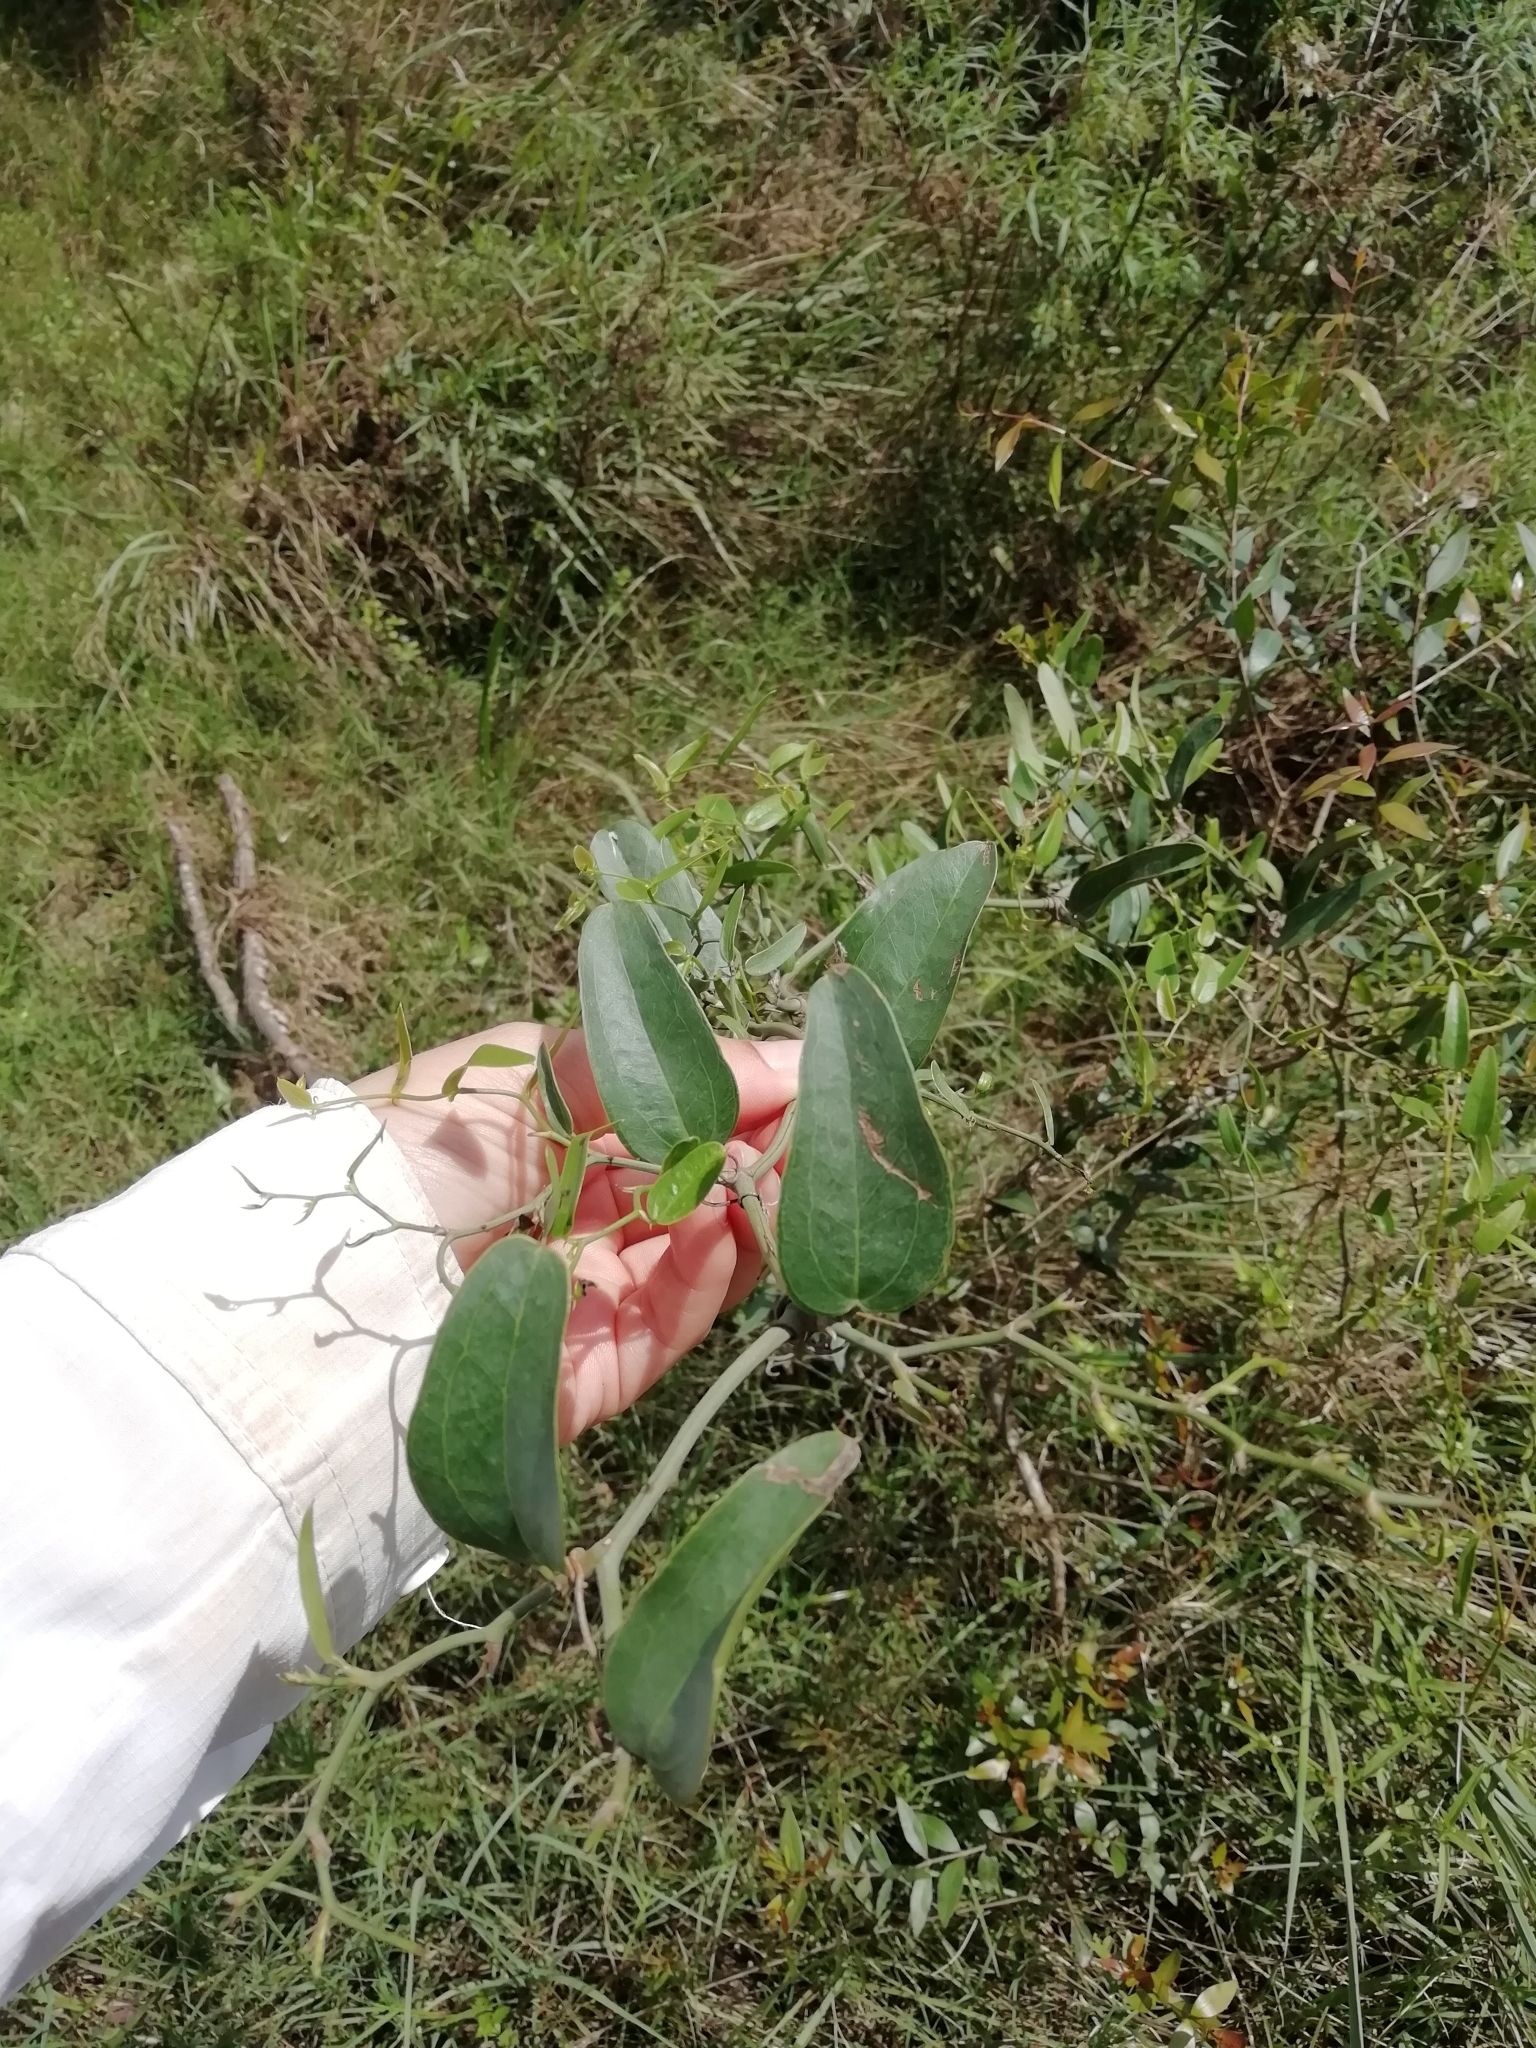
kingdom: Plantae
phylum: Tracheophyta
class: Liliopsida
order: Liliales
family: Smilacaceae
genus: Smilax
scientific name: Smilax campestris
